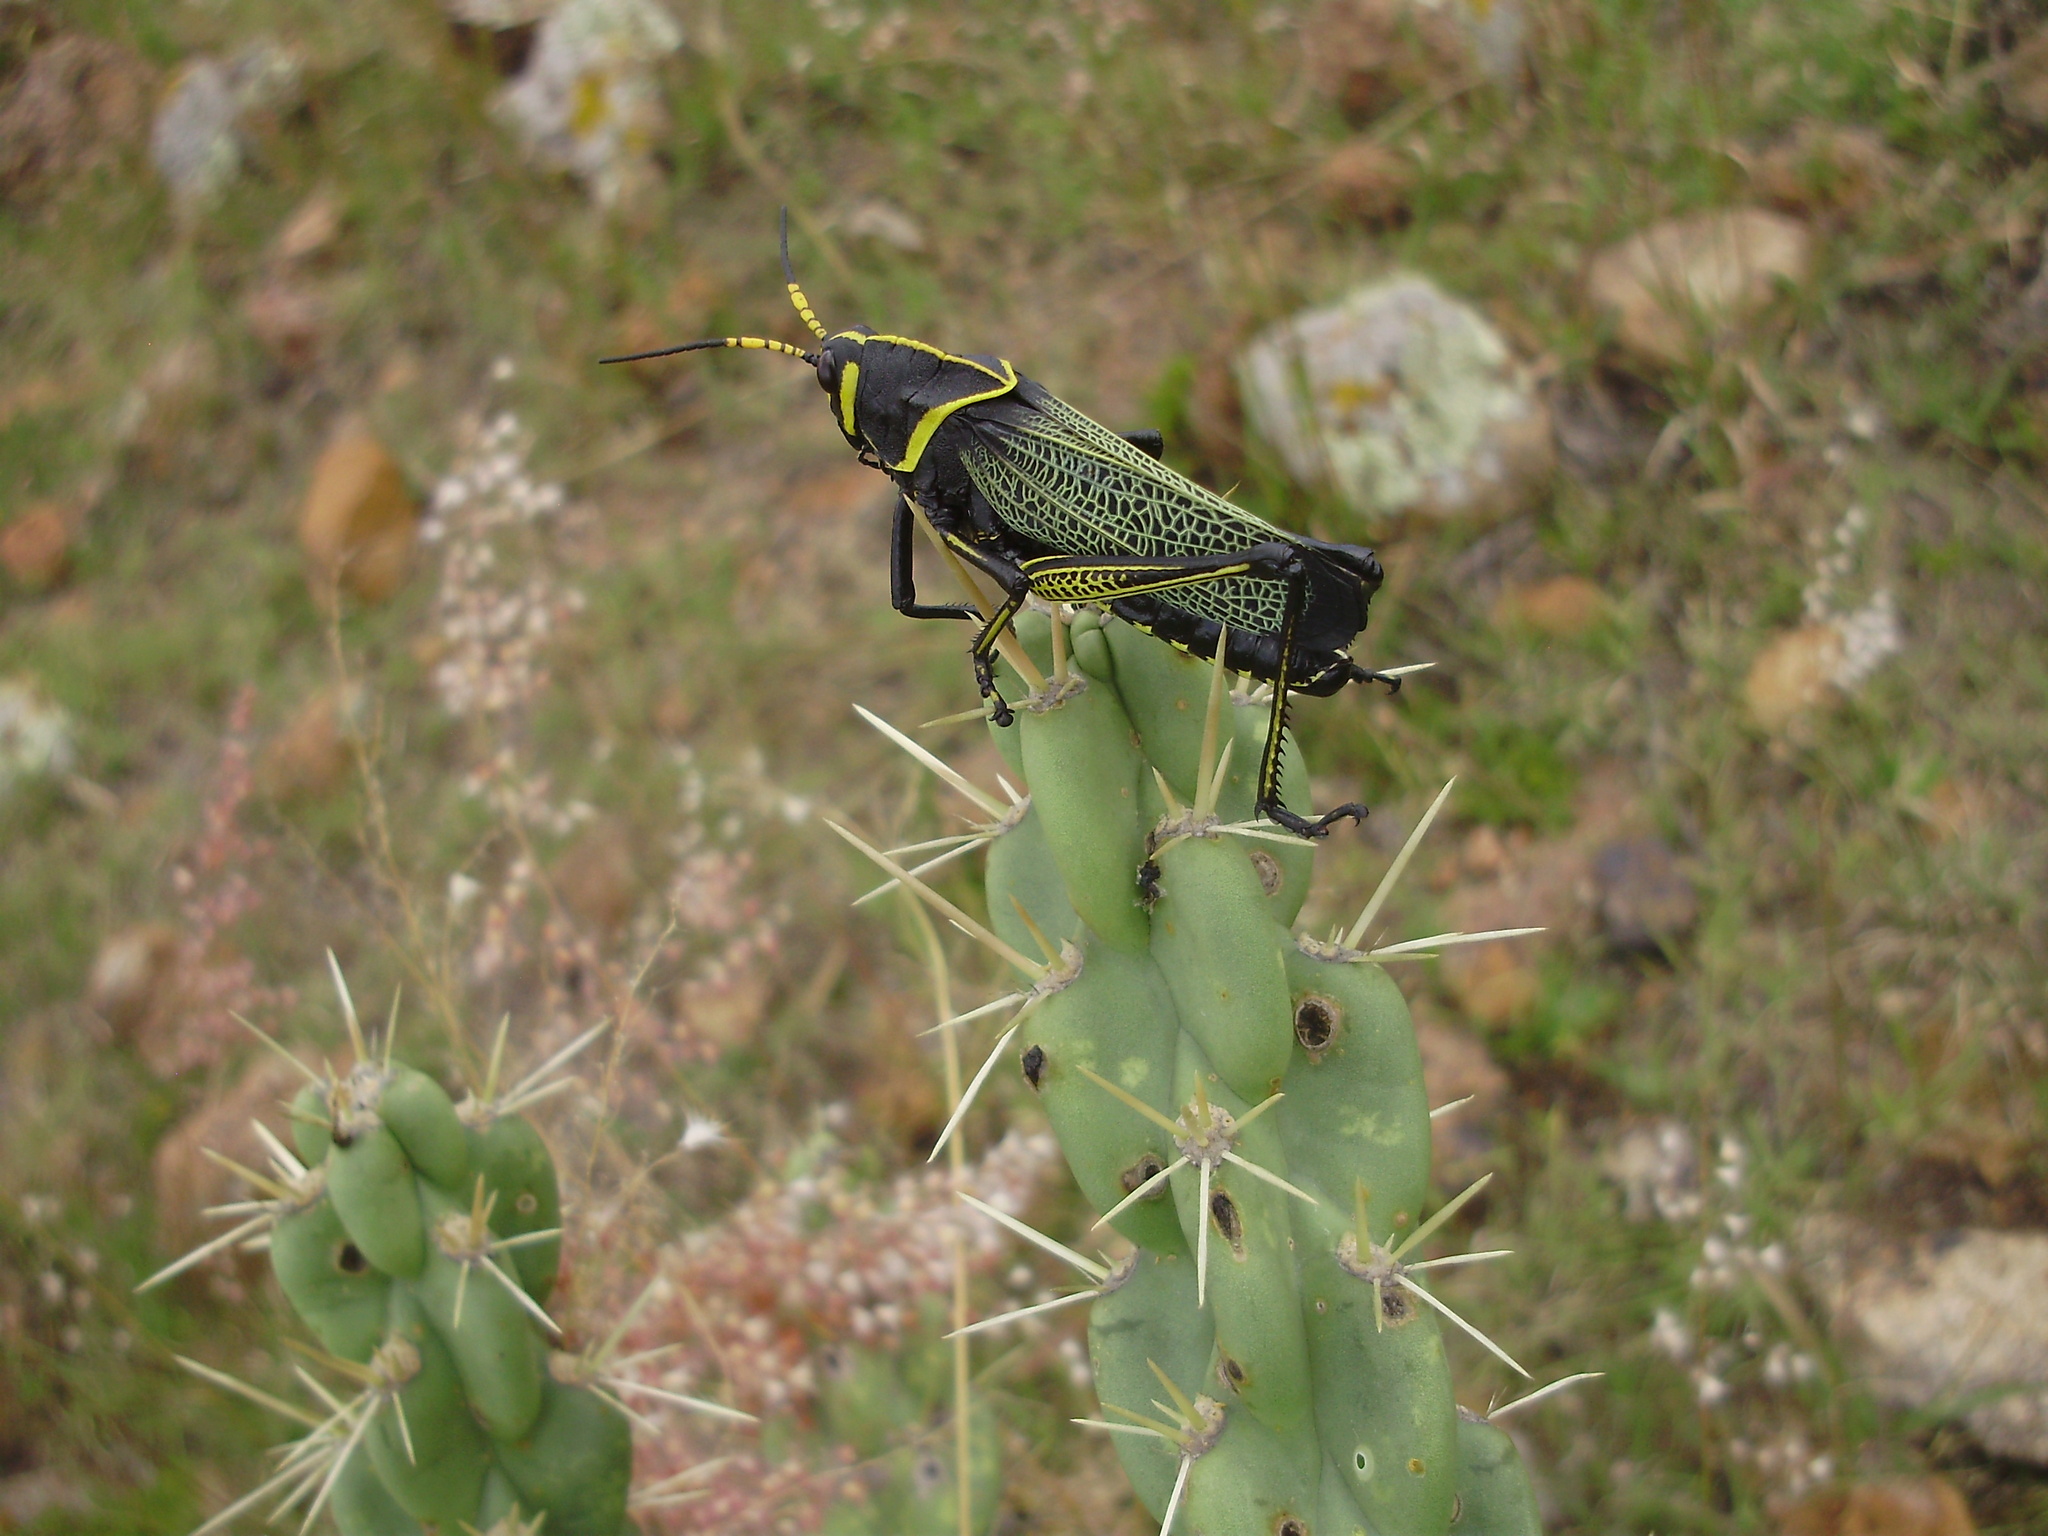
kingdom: Animalia
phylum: Arthropoda
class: Insecta
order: Orthoptera
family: Romaleidae
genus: Romalea
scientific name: Romalea
